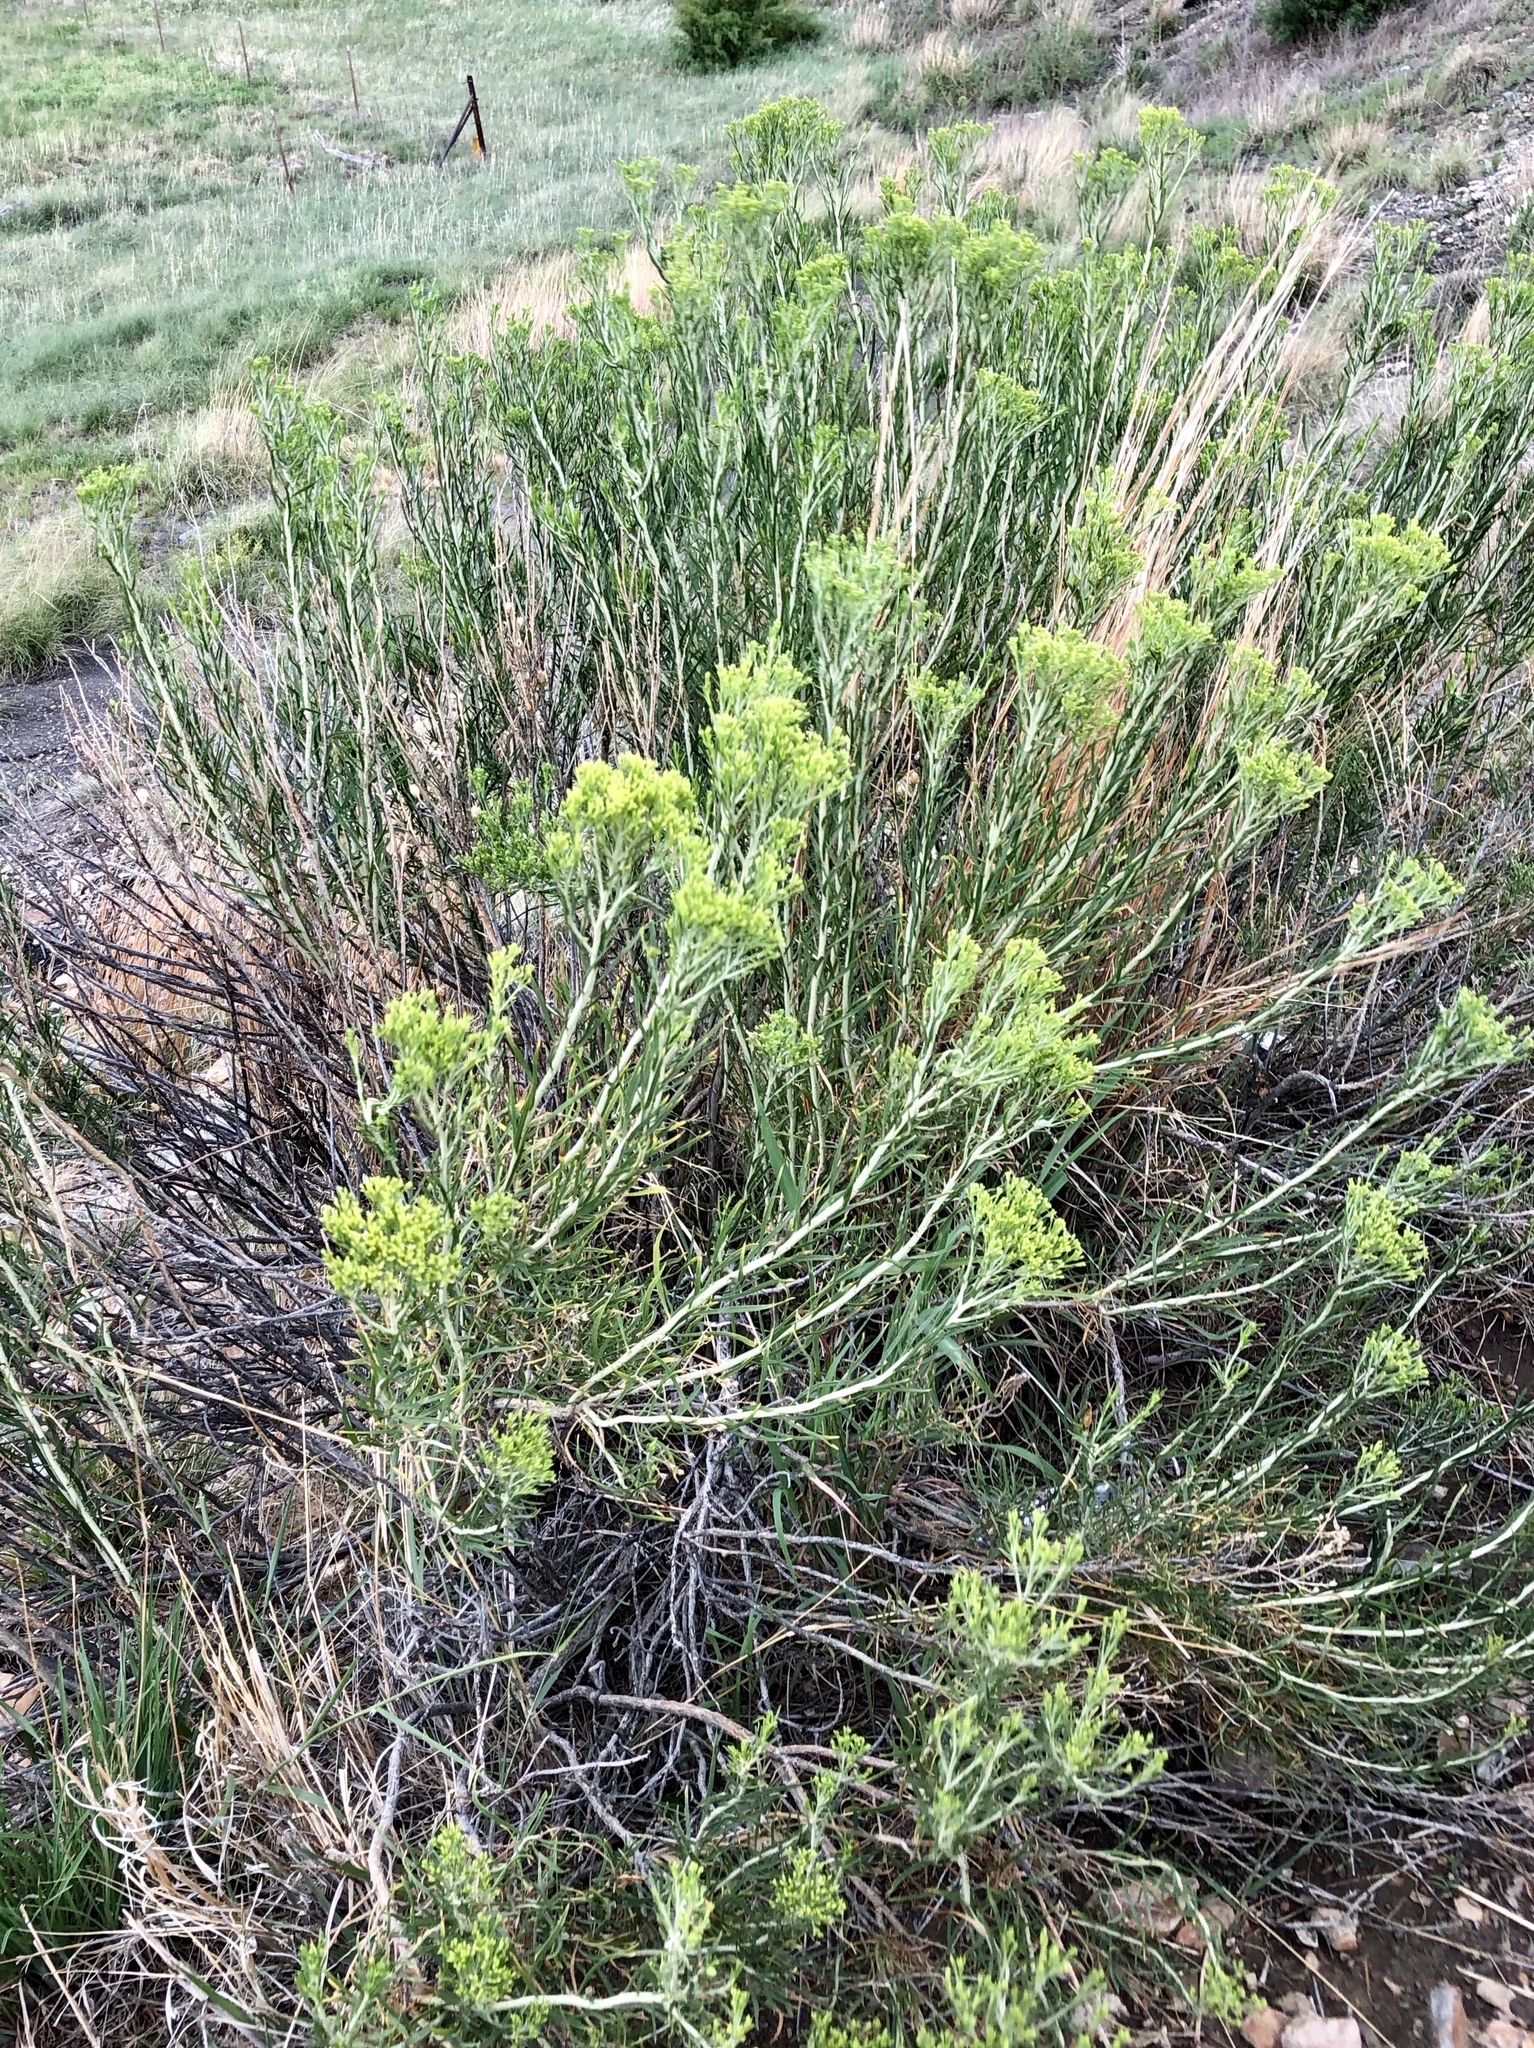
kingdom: Plantae
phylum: Tracheophyta
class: Magnoliopsida
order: Asterales
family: Asteraceae
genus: Ericameria
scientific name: Ericameria nauseosa
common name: Rubber rabbitbrush
